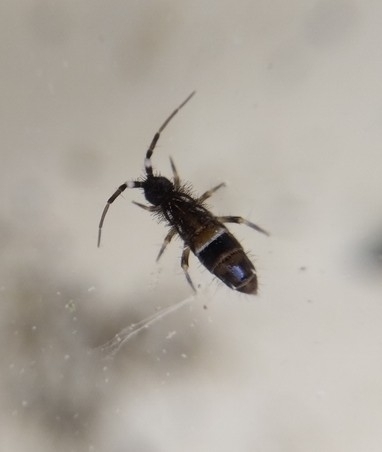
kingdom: Animalia
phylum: Arthropoda
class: Collembola
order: Entomobryomorpha
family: Orchesellidae
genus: Orchesella
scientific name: Orchesella cincta
